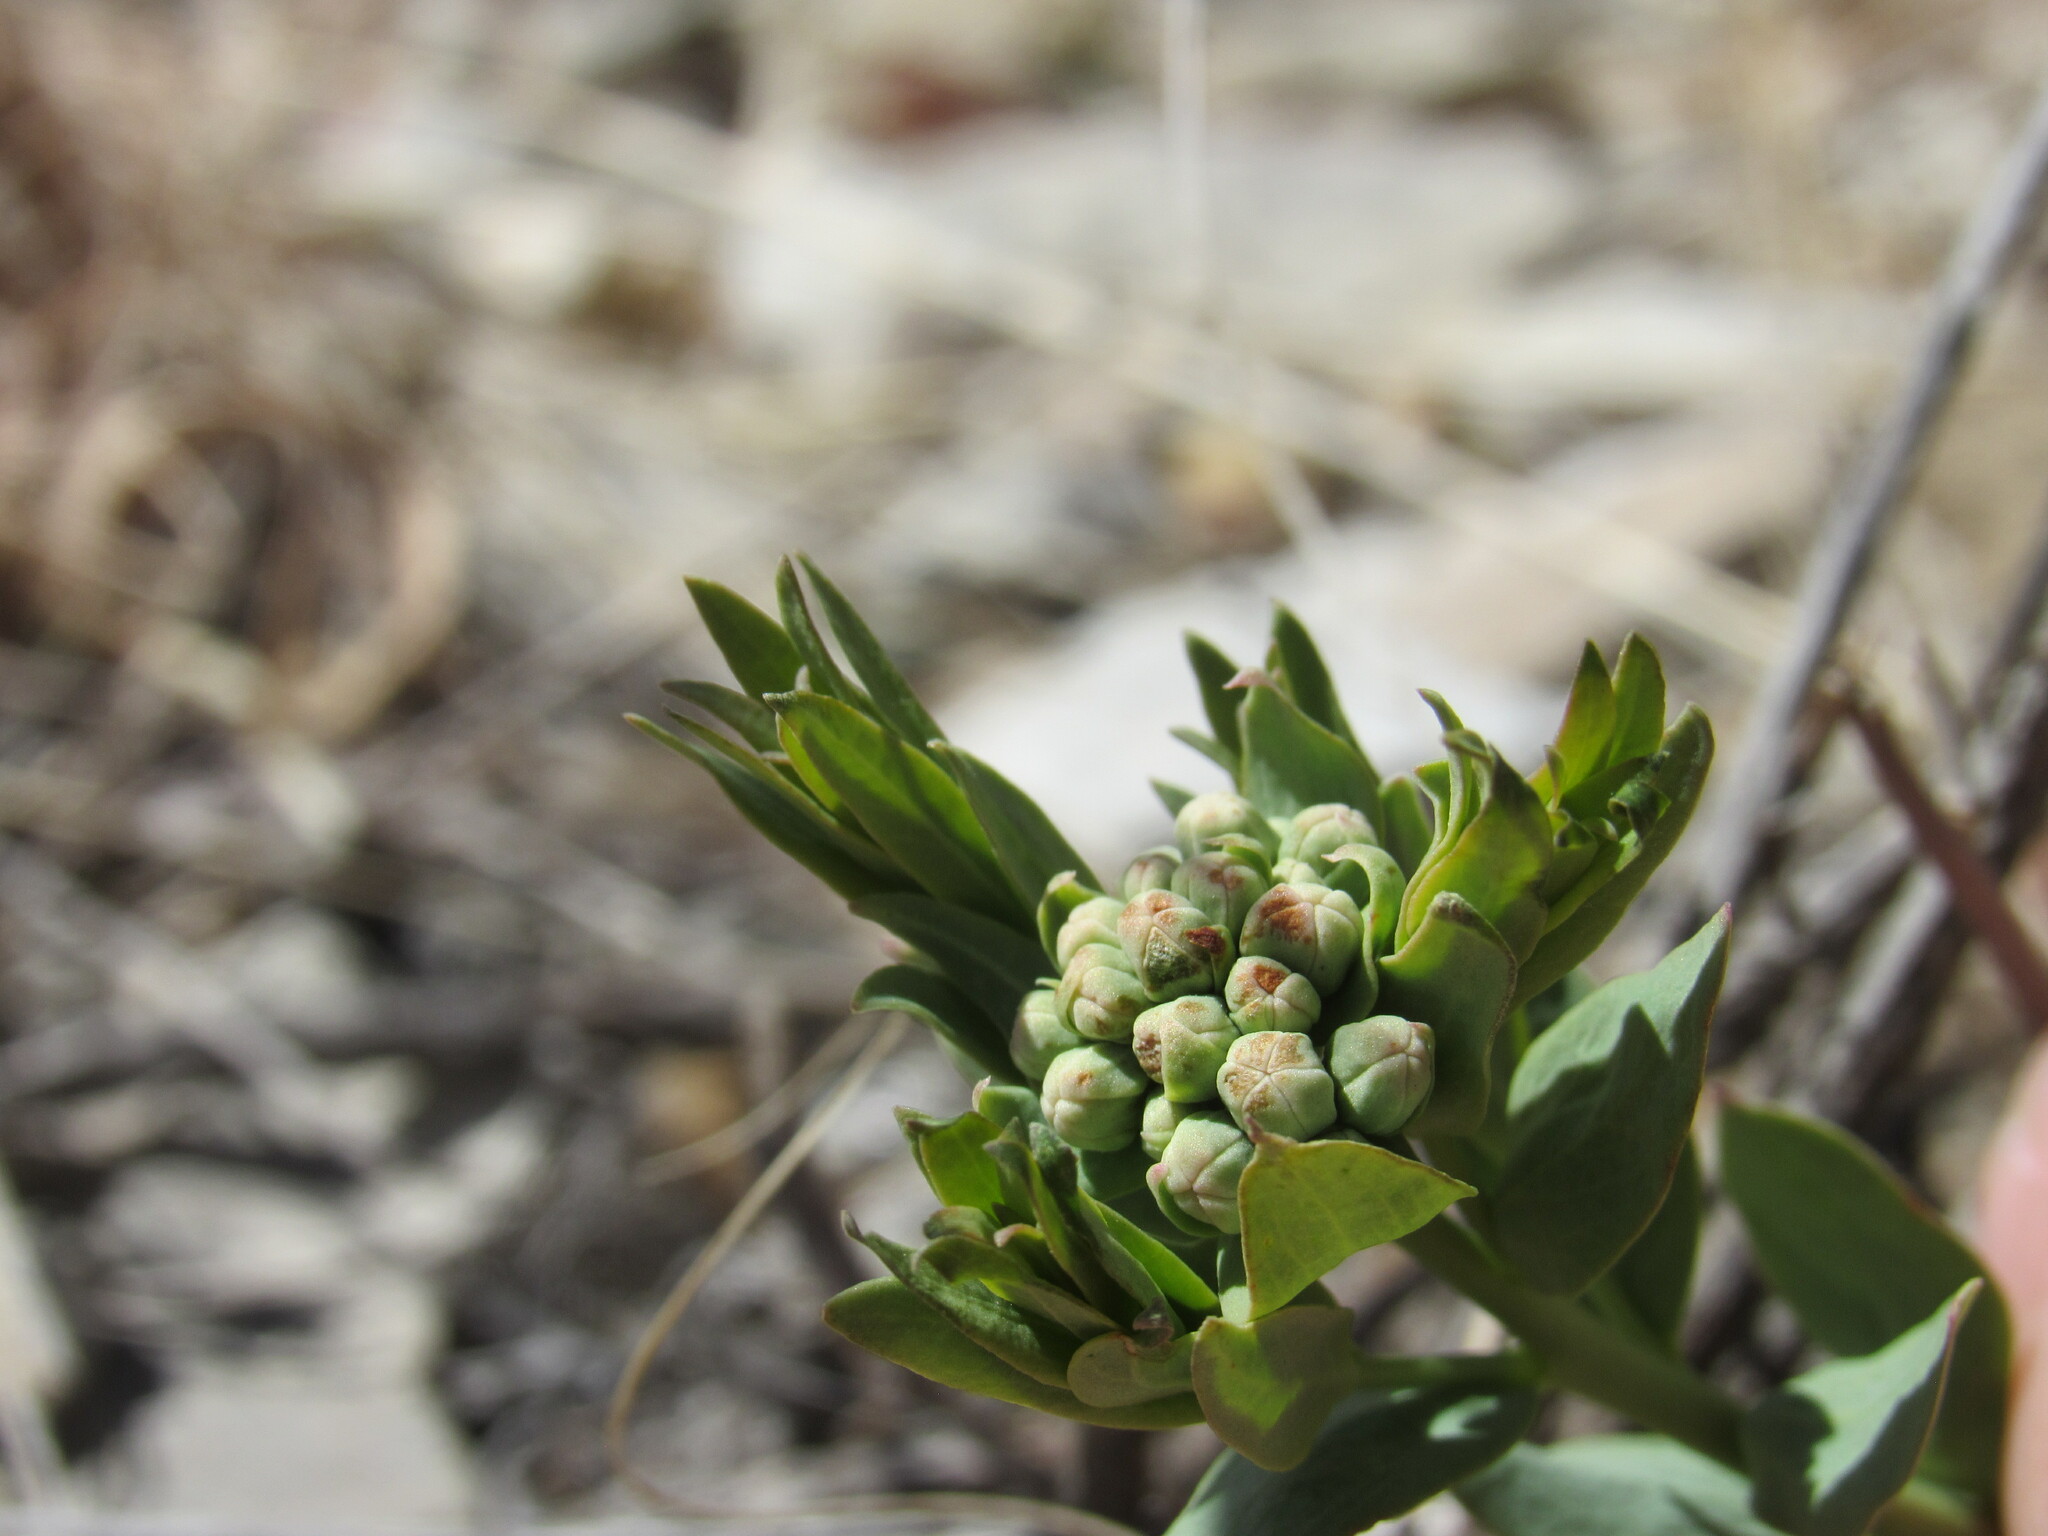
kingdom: Plantae
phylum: Tracheophyta
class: Magnoliopsida
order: Santalales
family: Comandraceae
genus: Comandra
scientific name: Comandra umbellata
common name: Bastard toadflax
